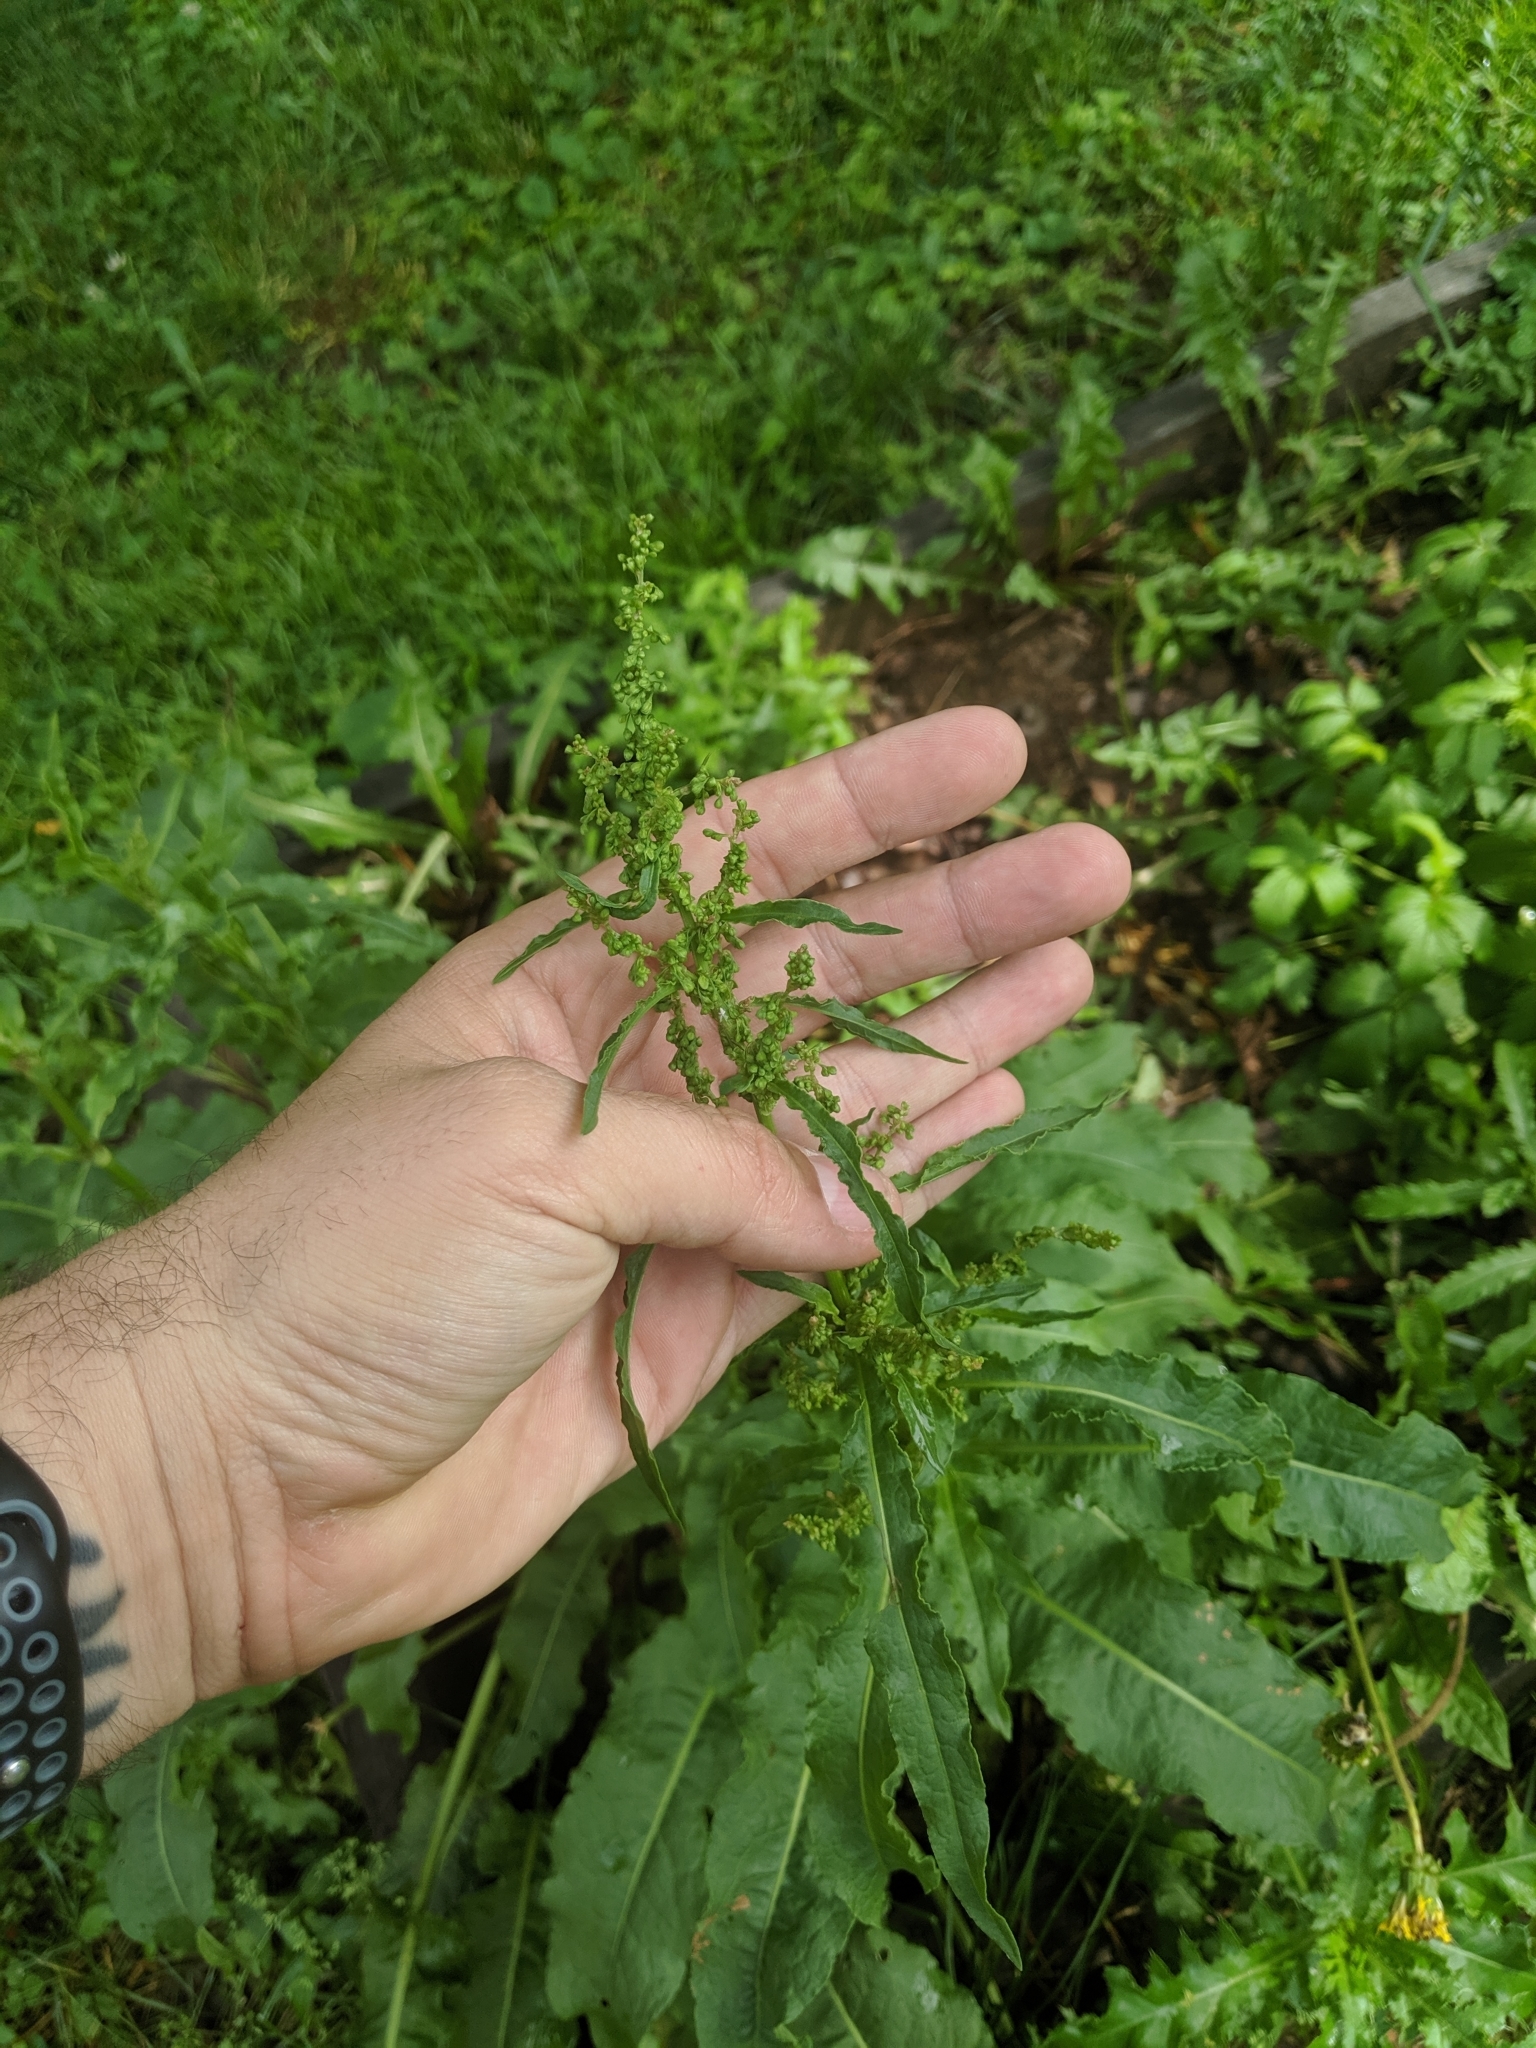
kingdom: Plantae
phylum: Tracheophyta
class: Magnoliopsida
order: Caryophyllales
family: Polygonaceae
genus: Rumex
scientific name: Rumex crispus
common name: Curled dock
